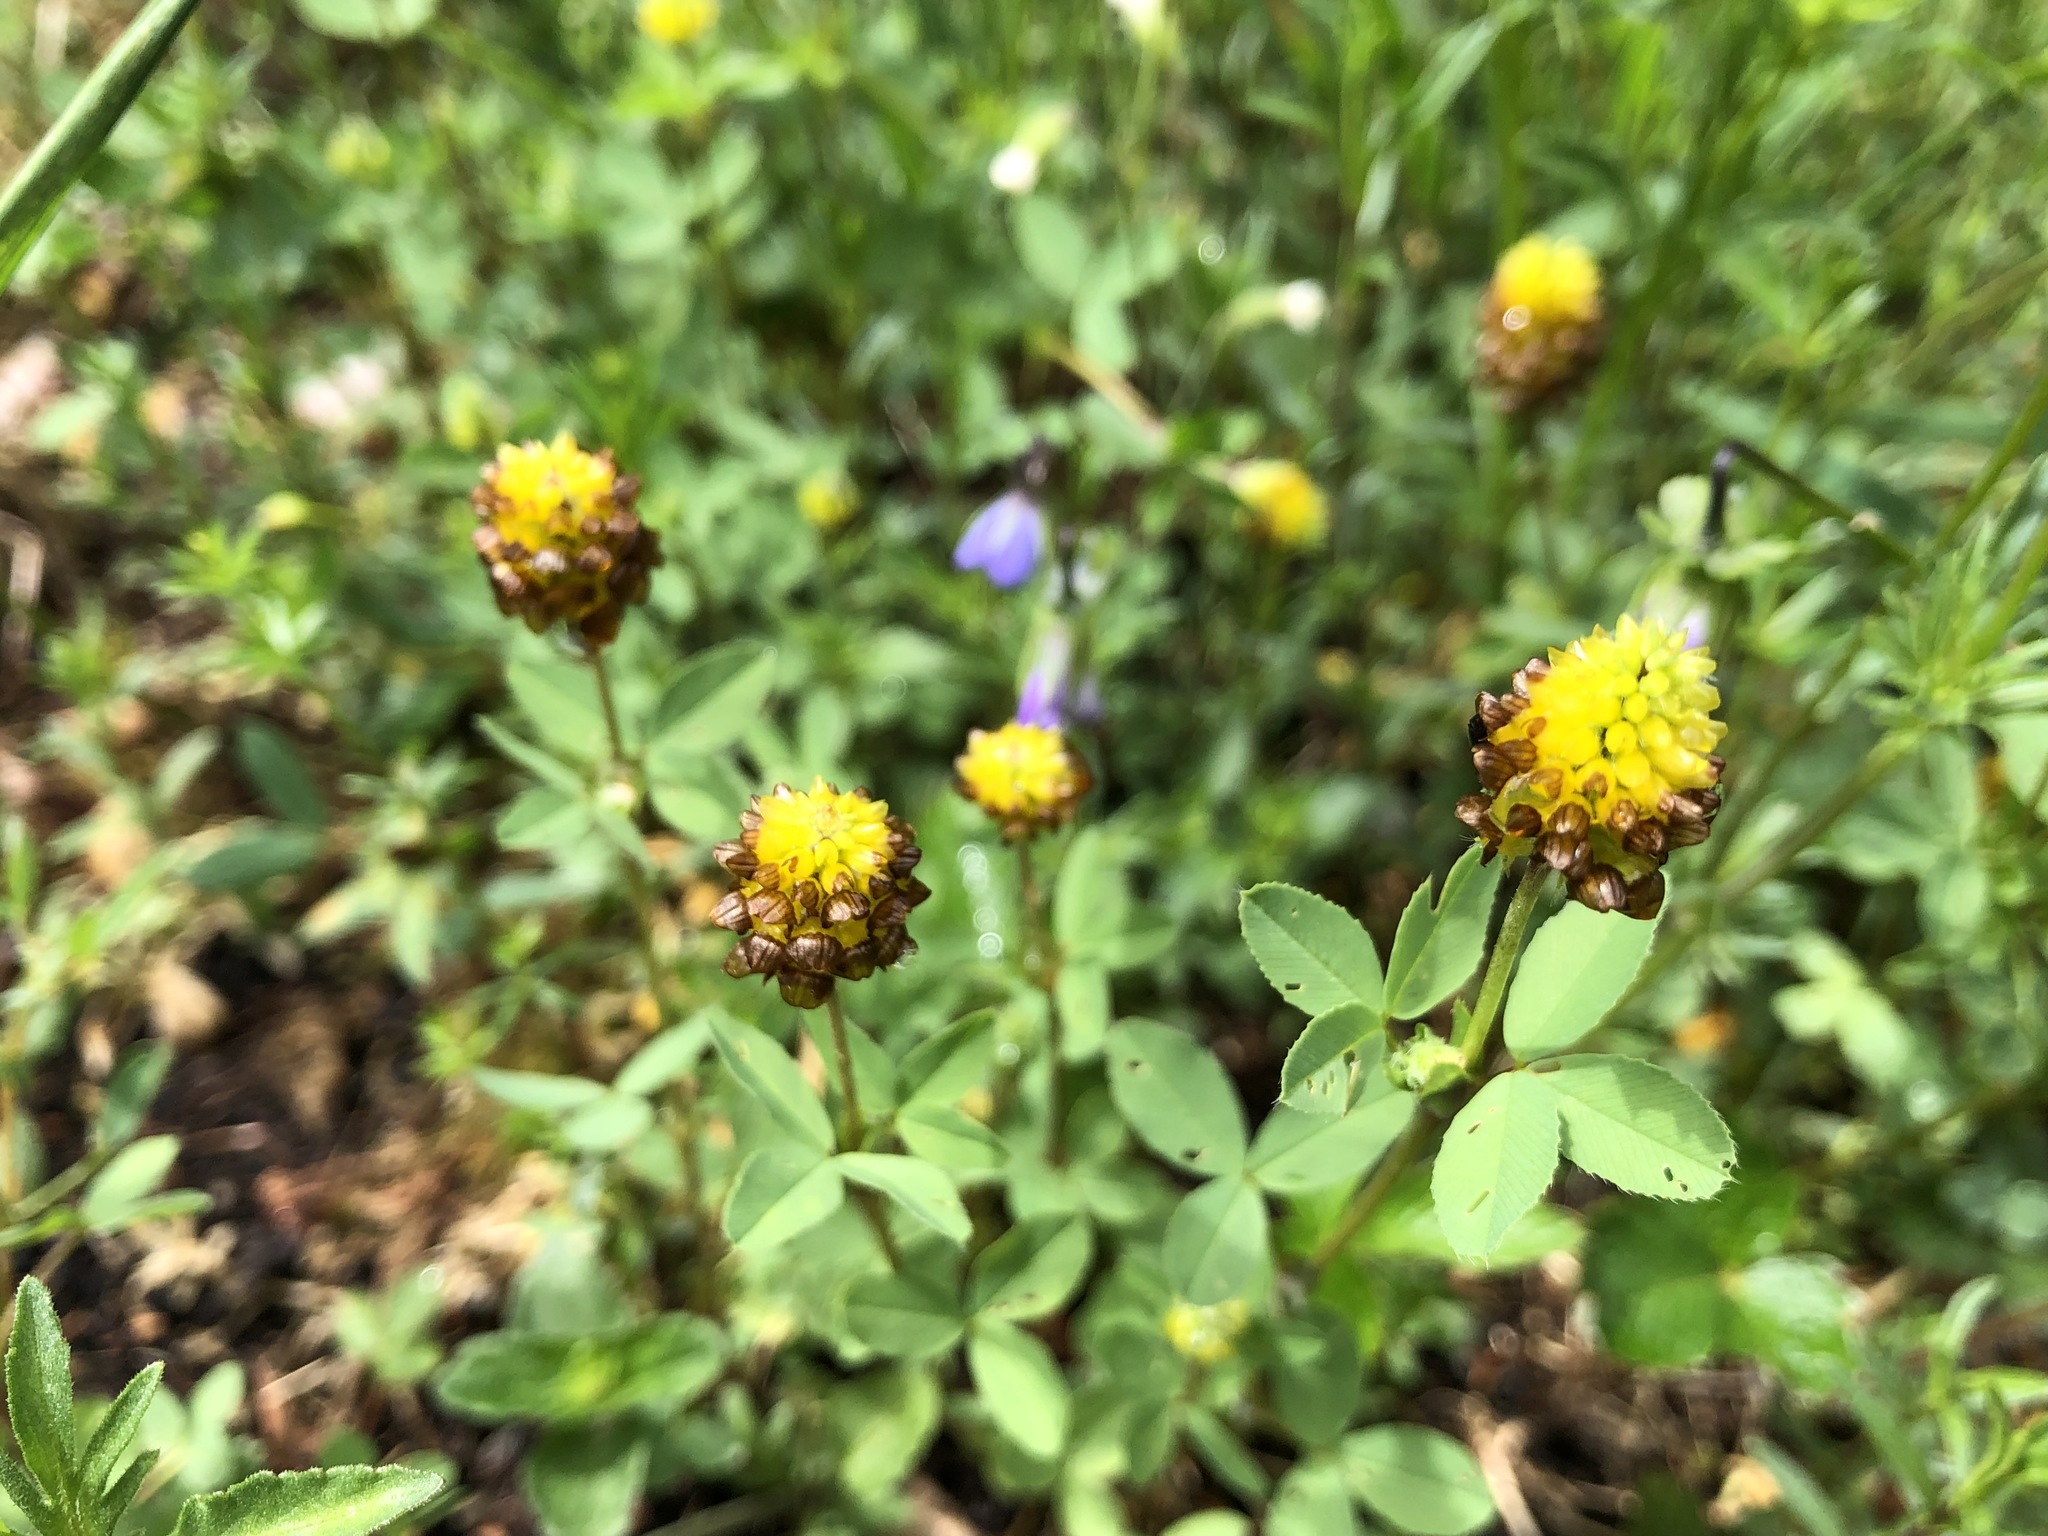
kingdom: Plantae
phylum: Tracheophyta
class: Magnoliopsida
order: Fabales
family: Fabaceae
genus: Trifolium
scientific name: Trifolium spadiceum
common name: Brown moor clover
